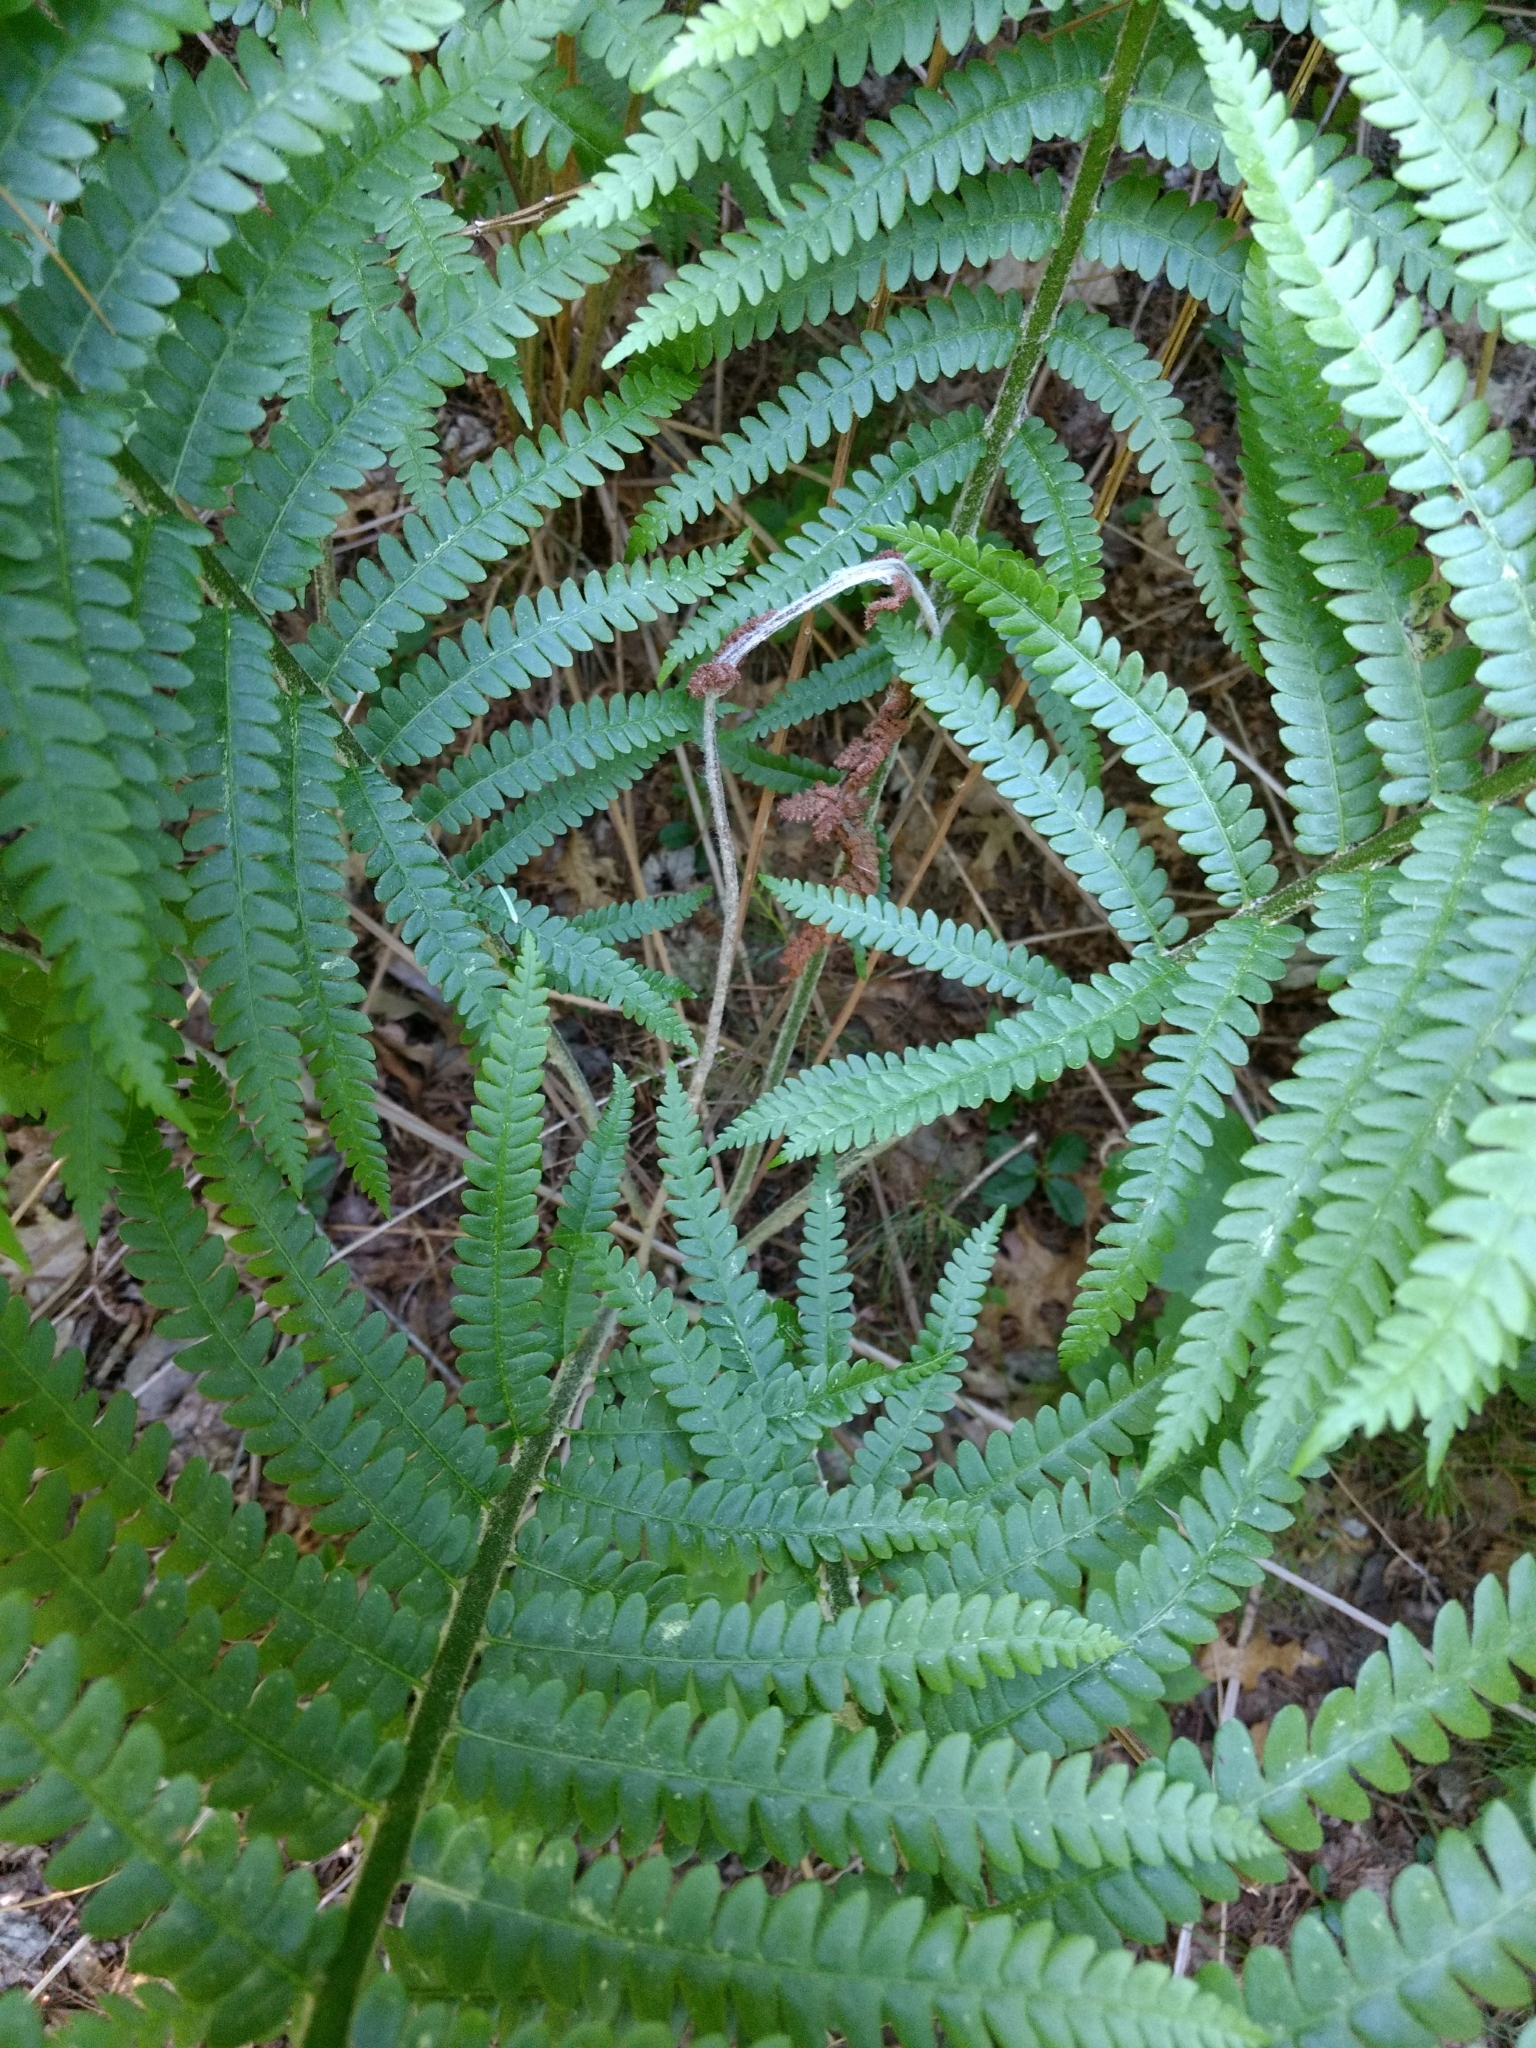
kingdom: Plantae
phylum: Tracheophyta
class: Polypodiopsida
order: Osmundales
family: Osmundaceae
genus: Osmundastrum
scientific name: Osmundastrum cinnamomeum
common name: Cinnamon fern
